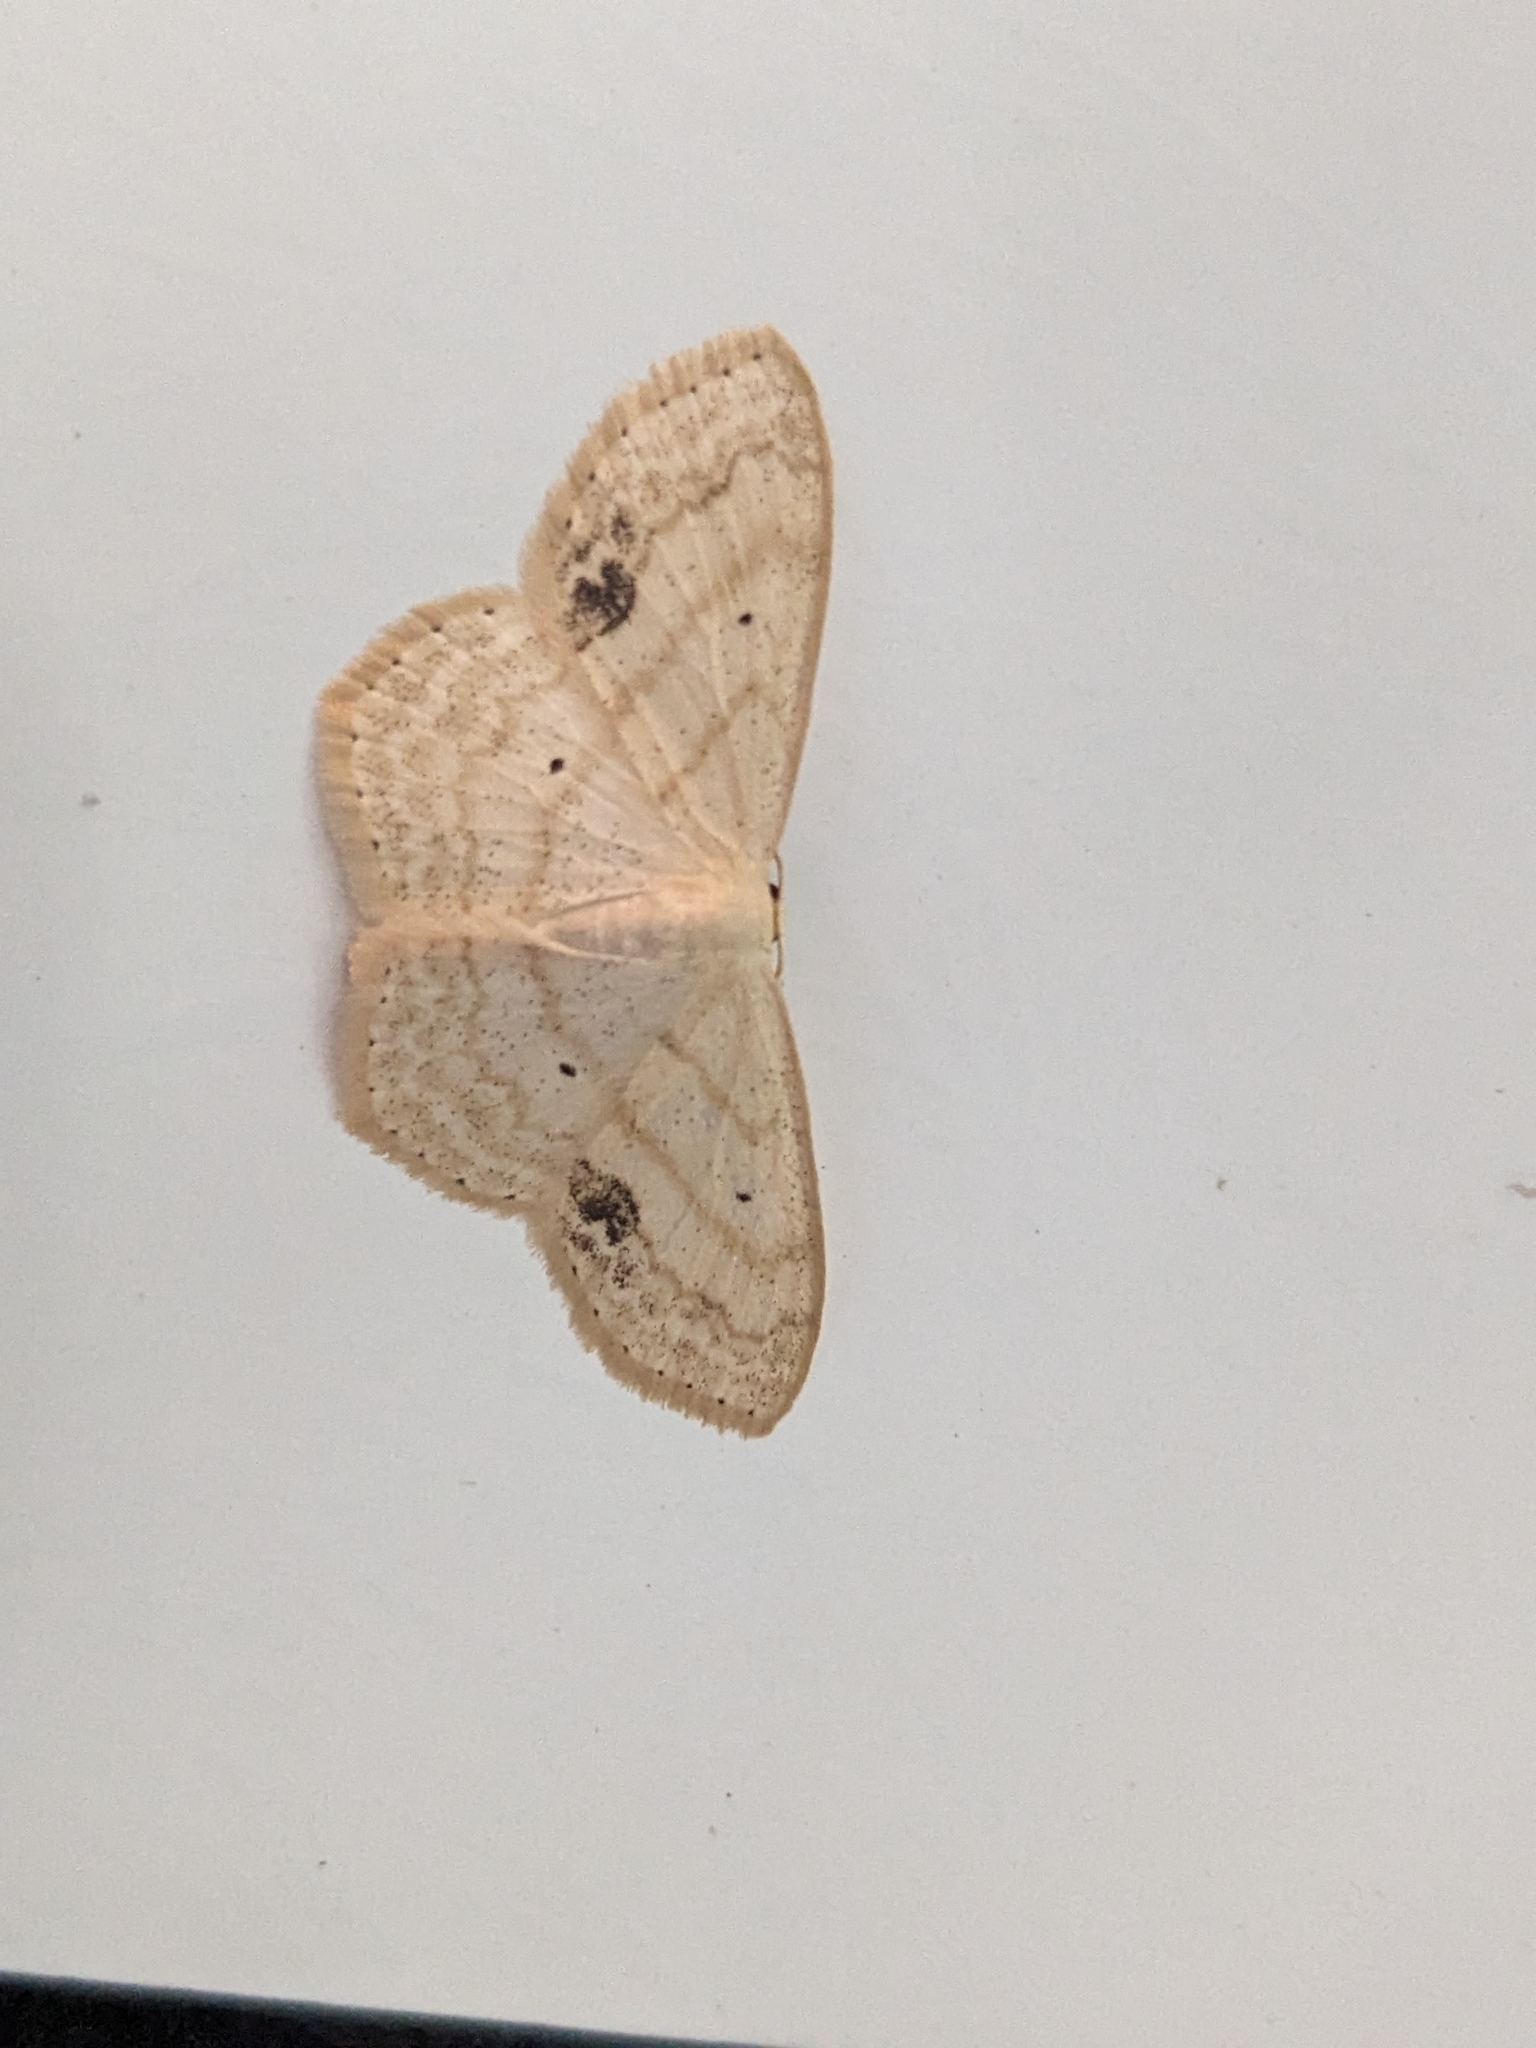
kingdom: Animalia
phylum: Arthropoda
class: Insecta
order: Lepidoptera
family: Geometridae
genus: Scopula
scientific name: Scopula limboundata
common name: Large lace border
